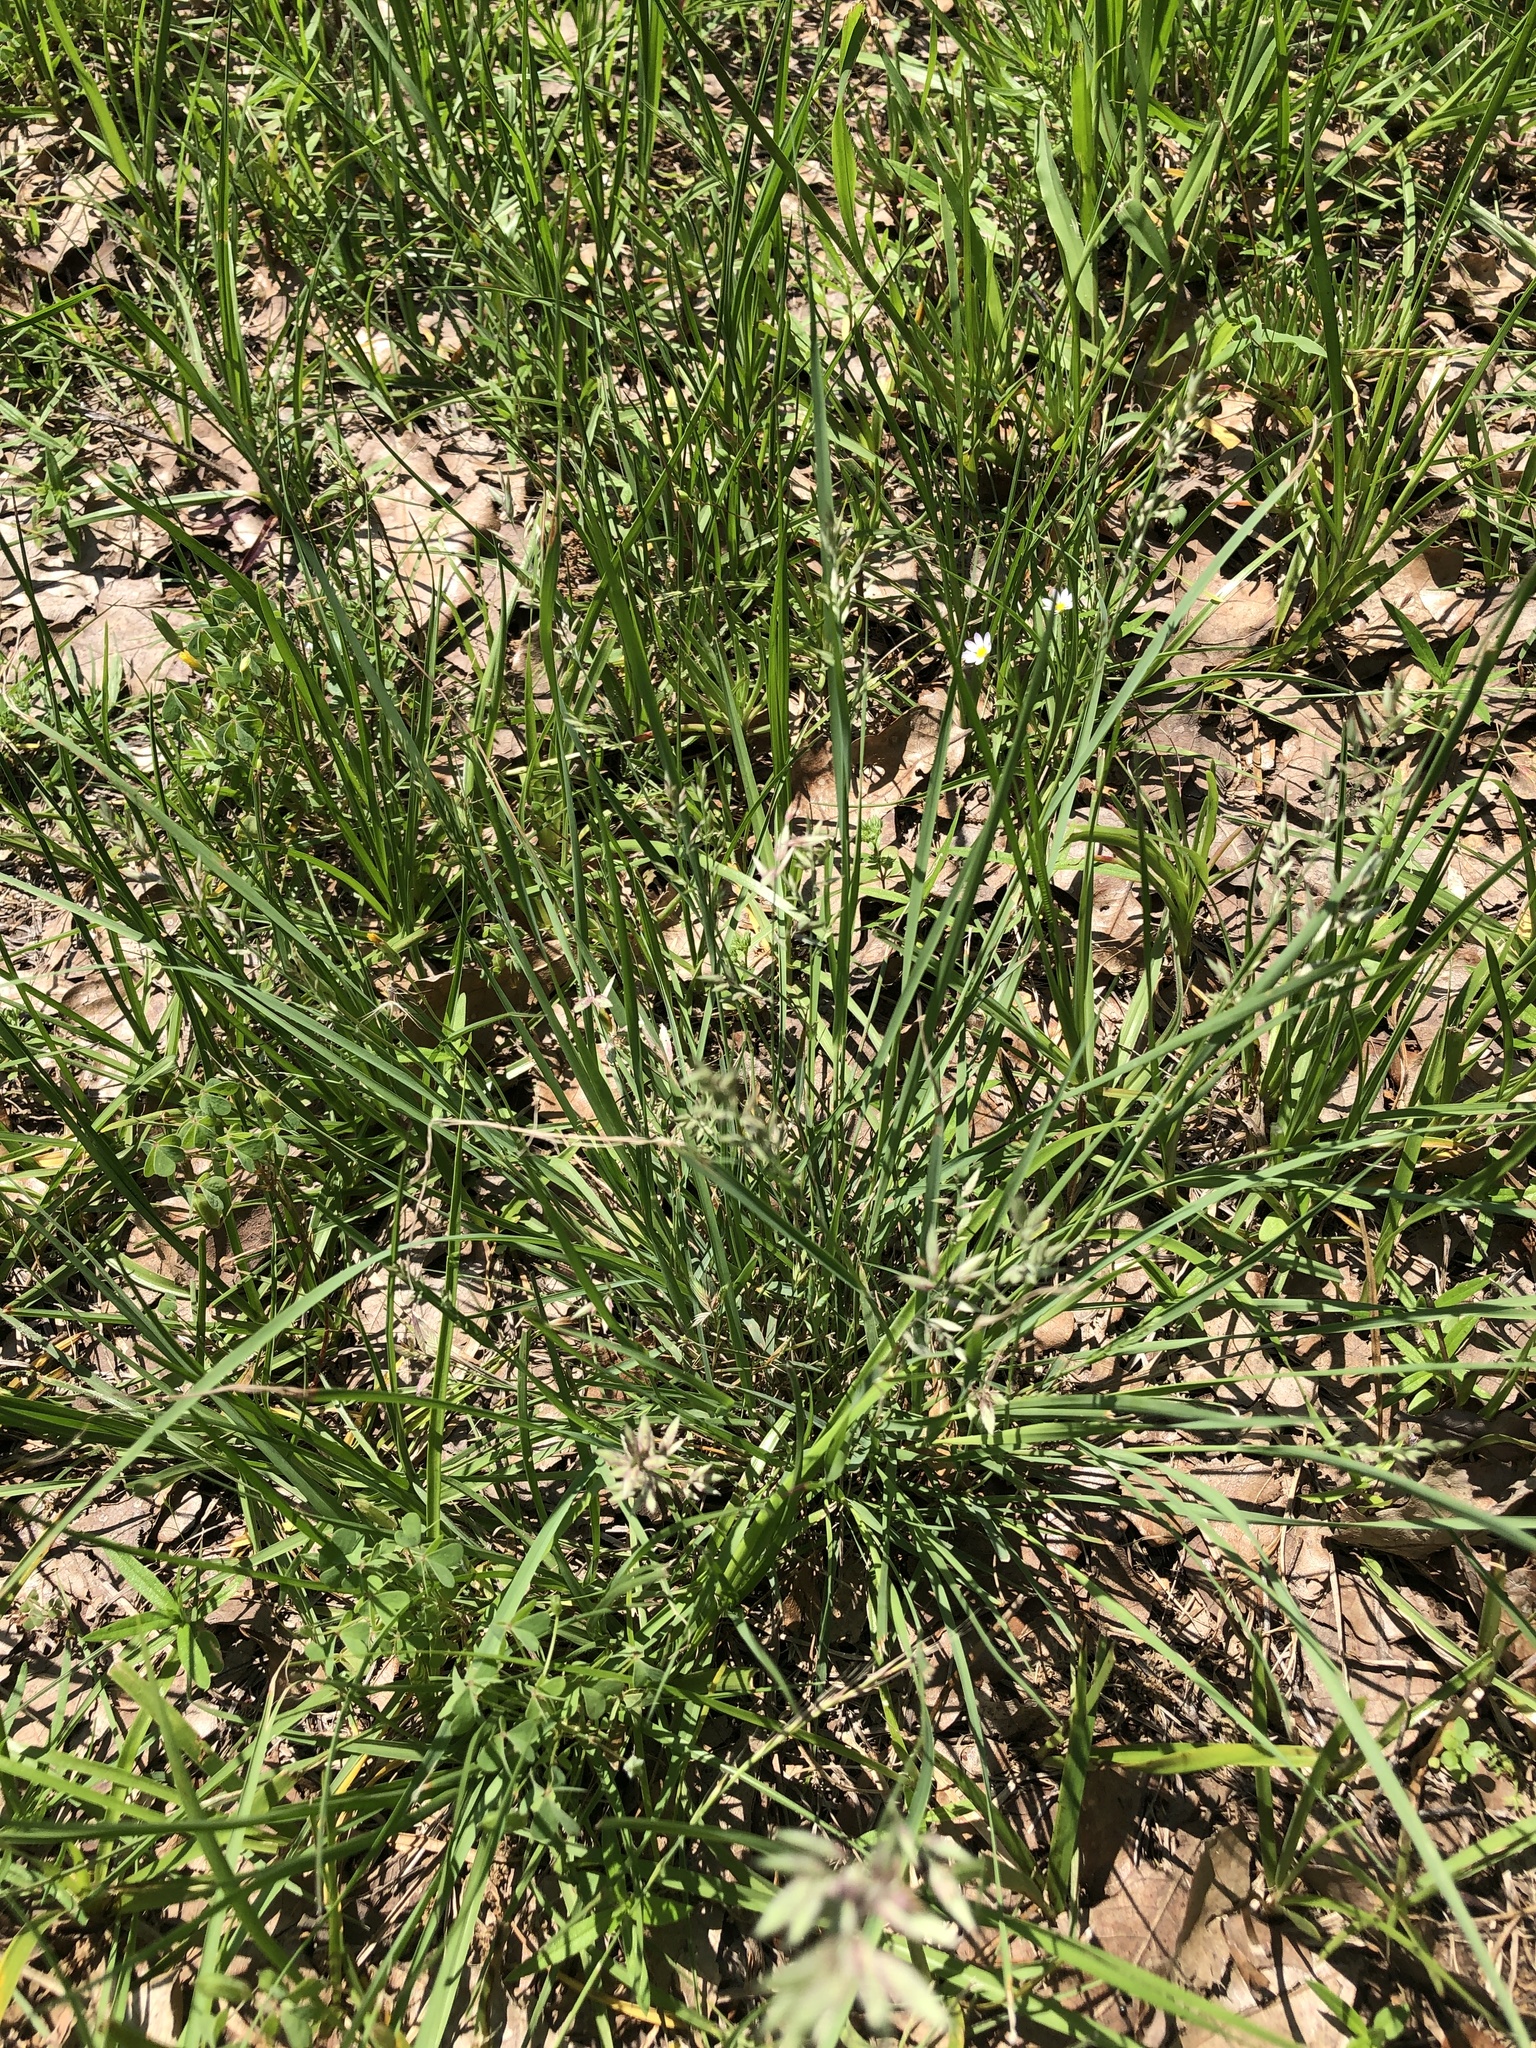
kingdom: Plantae
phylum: Tracheophyta
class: Liliopsida
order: Poales
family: Poaceae
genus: Eragrostis
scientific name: Eragrostis secundiflora
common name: Red love grass
